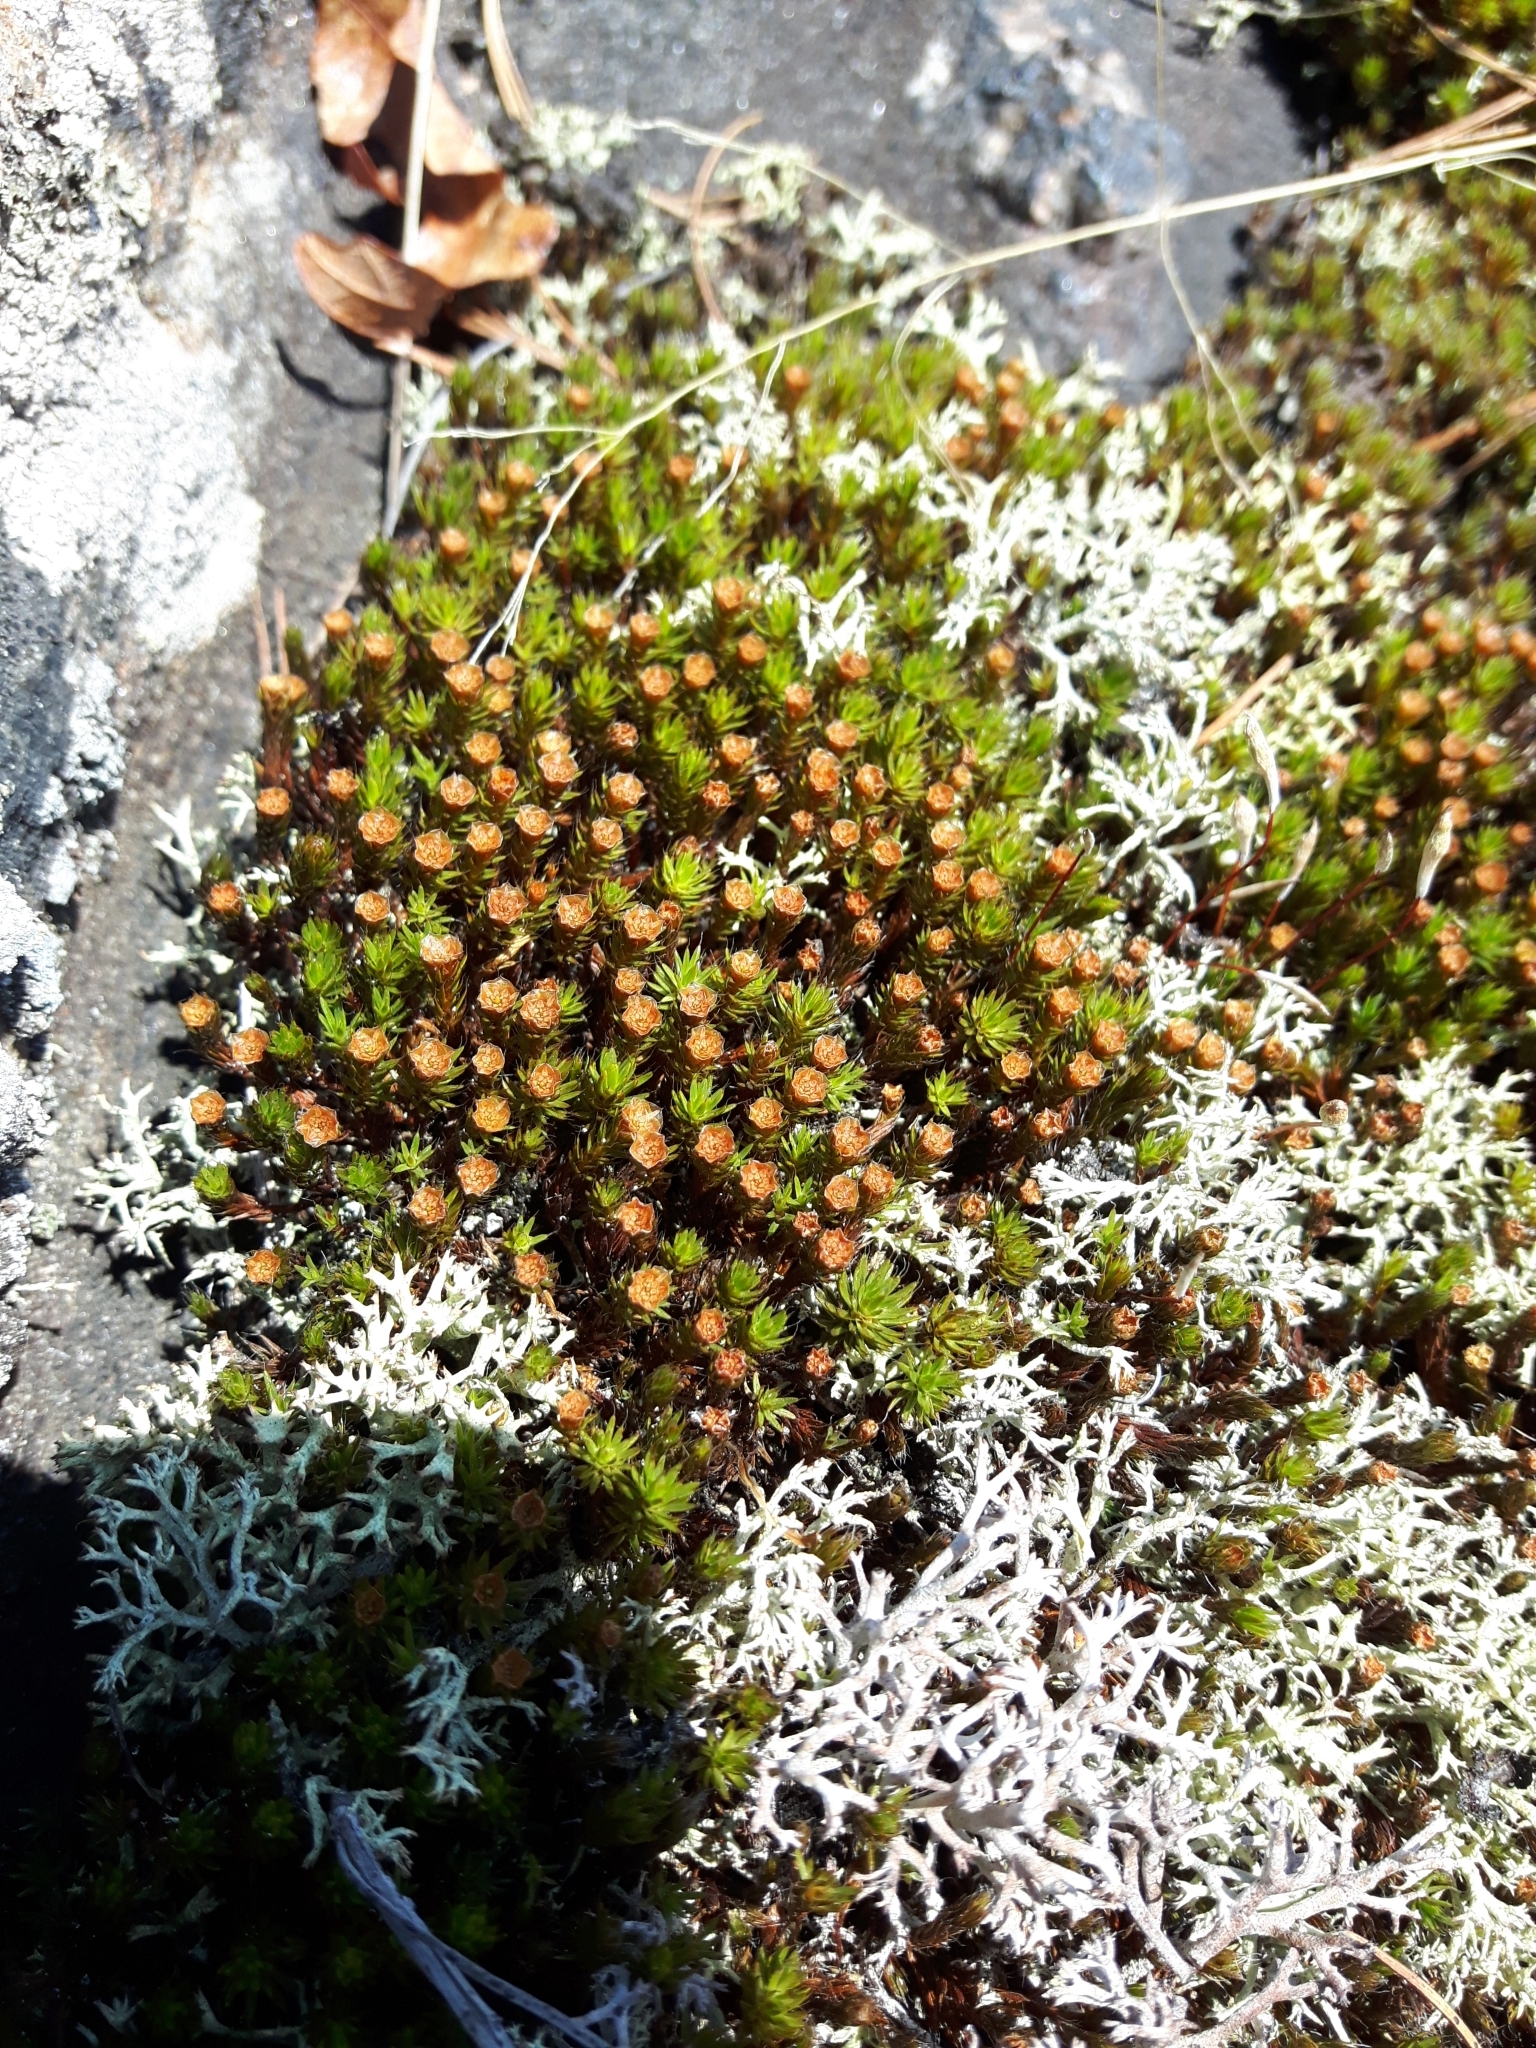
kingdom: Plantae
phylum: Bryophyta
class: Polytrichopsida
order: Polytrichales
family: Polytrichaceae
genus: Polytrichum
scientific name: Polytrichum piliferum
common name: Bristly haircap
